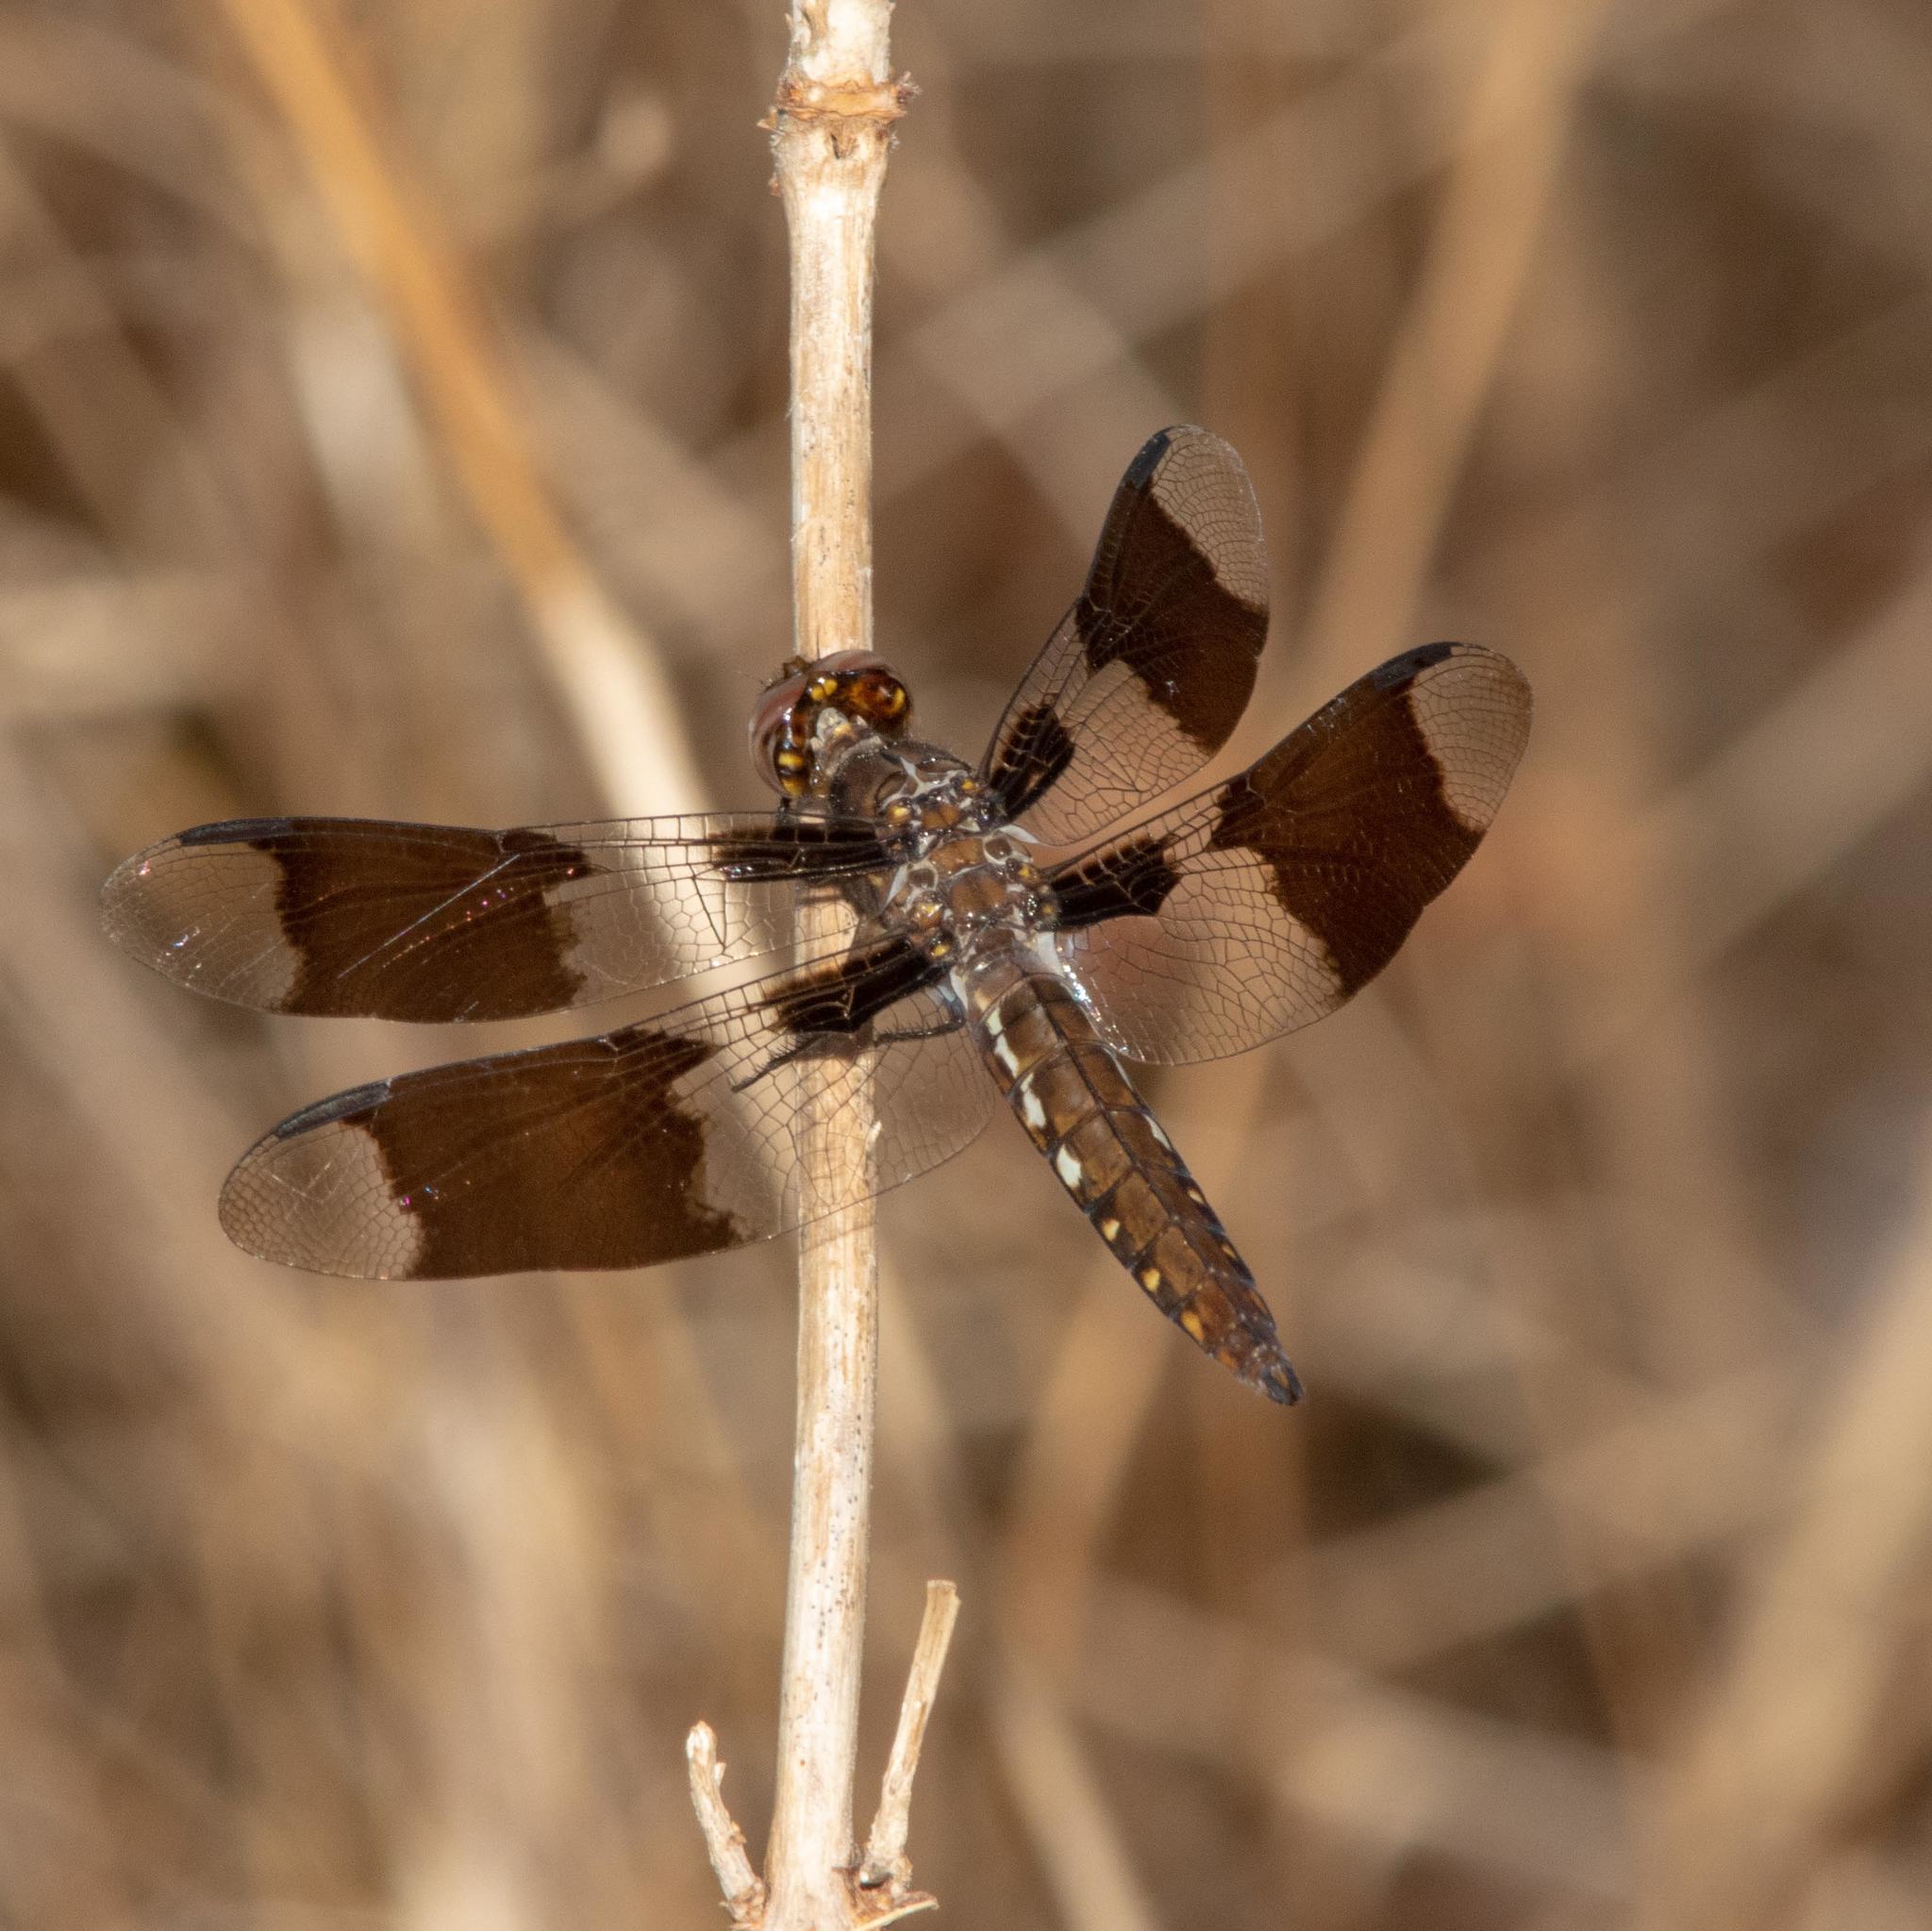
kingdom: Animalia
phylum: Arthropoda
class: Insecta
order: Odonata
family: Libellulidae
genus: Plathemis
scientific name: Plathemis lydia
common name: Common whitetail
